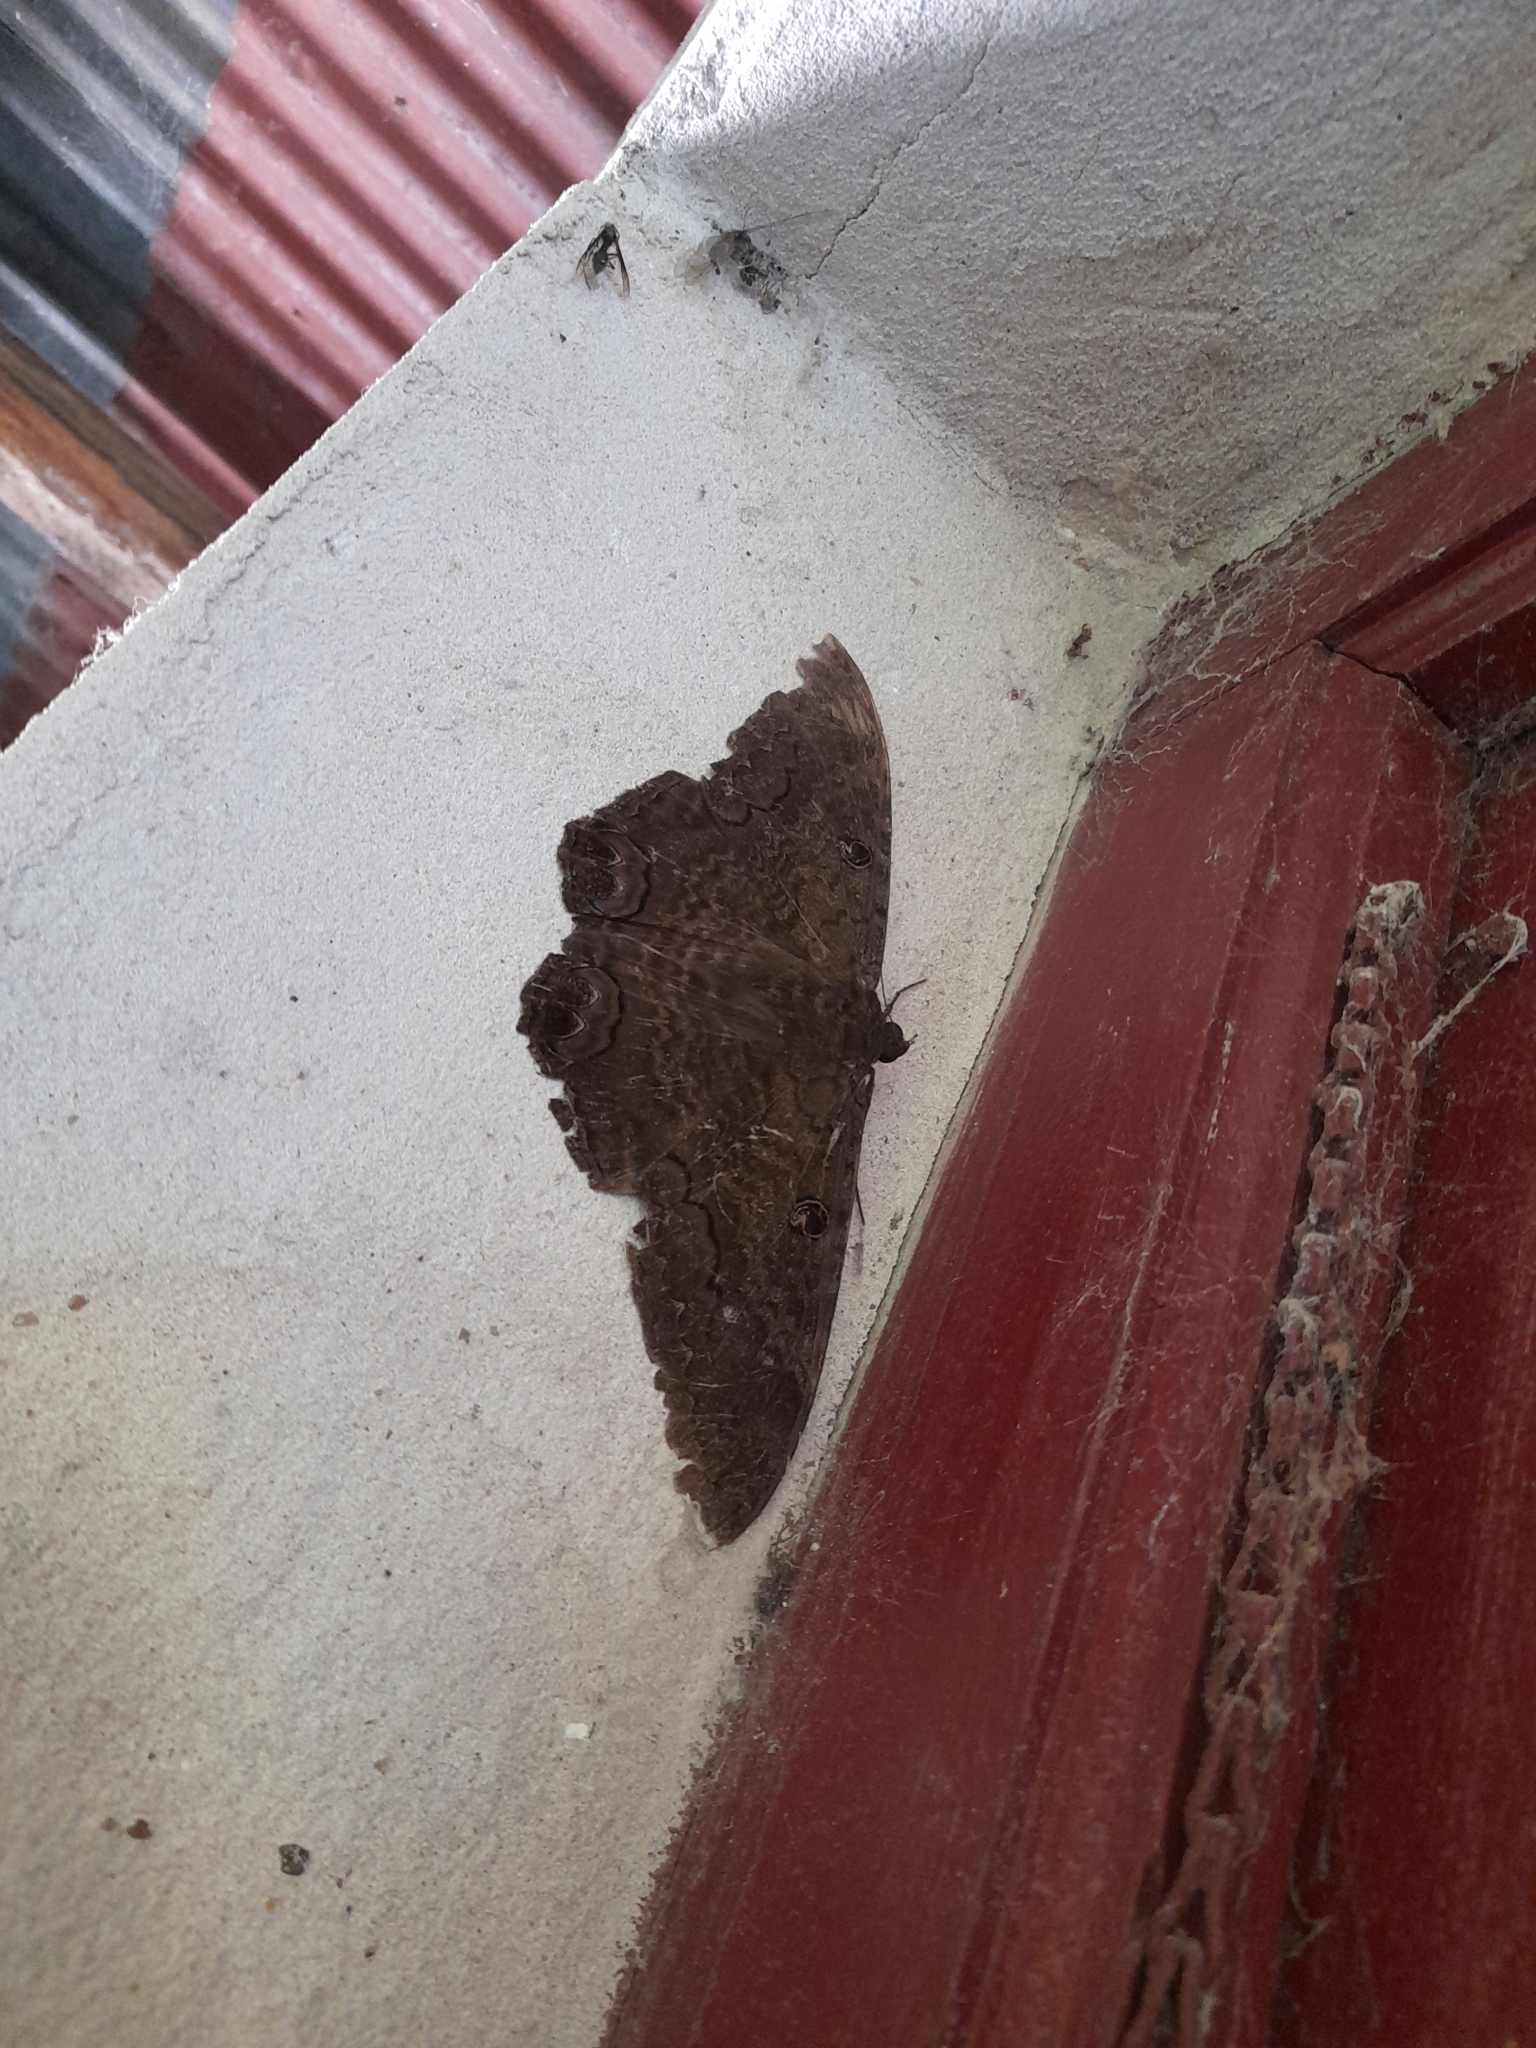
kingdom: Animalia
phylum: Arthropoda
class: Insecta
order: Lepidoptera
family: Erebidae
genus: Ascalapha
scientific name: Ascalapha odorata
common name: Black witch
